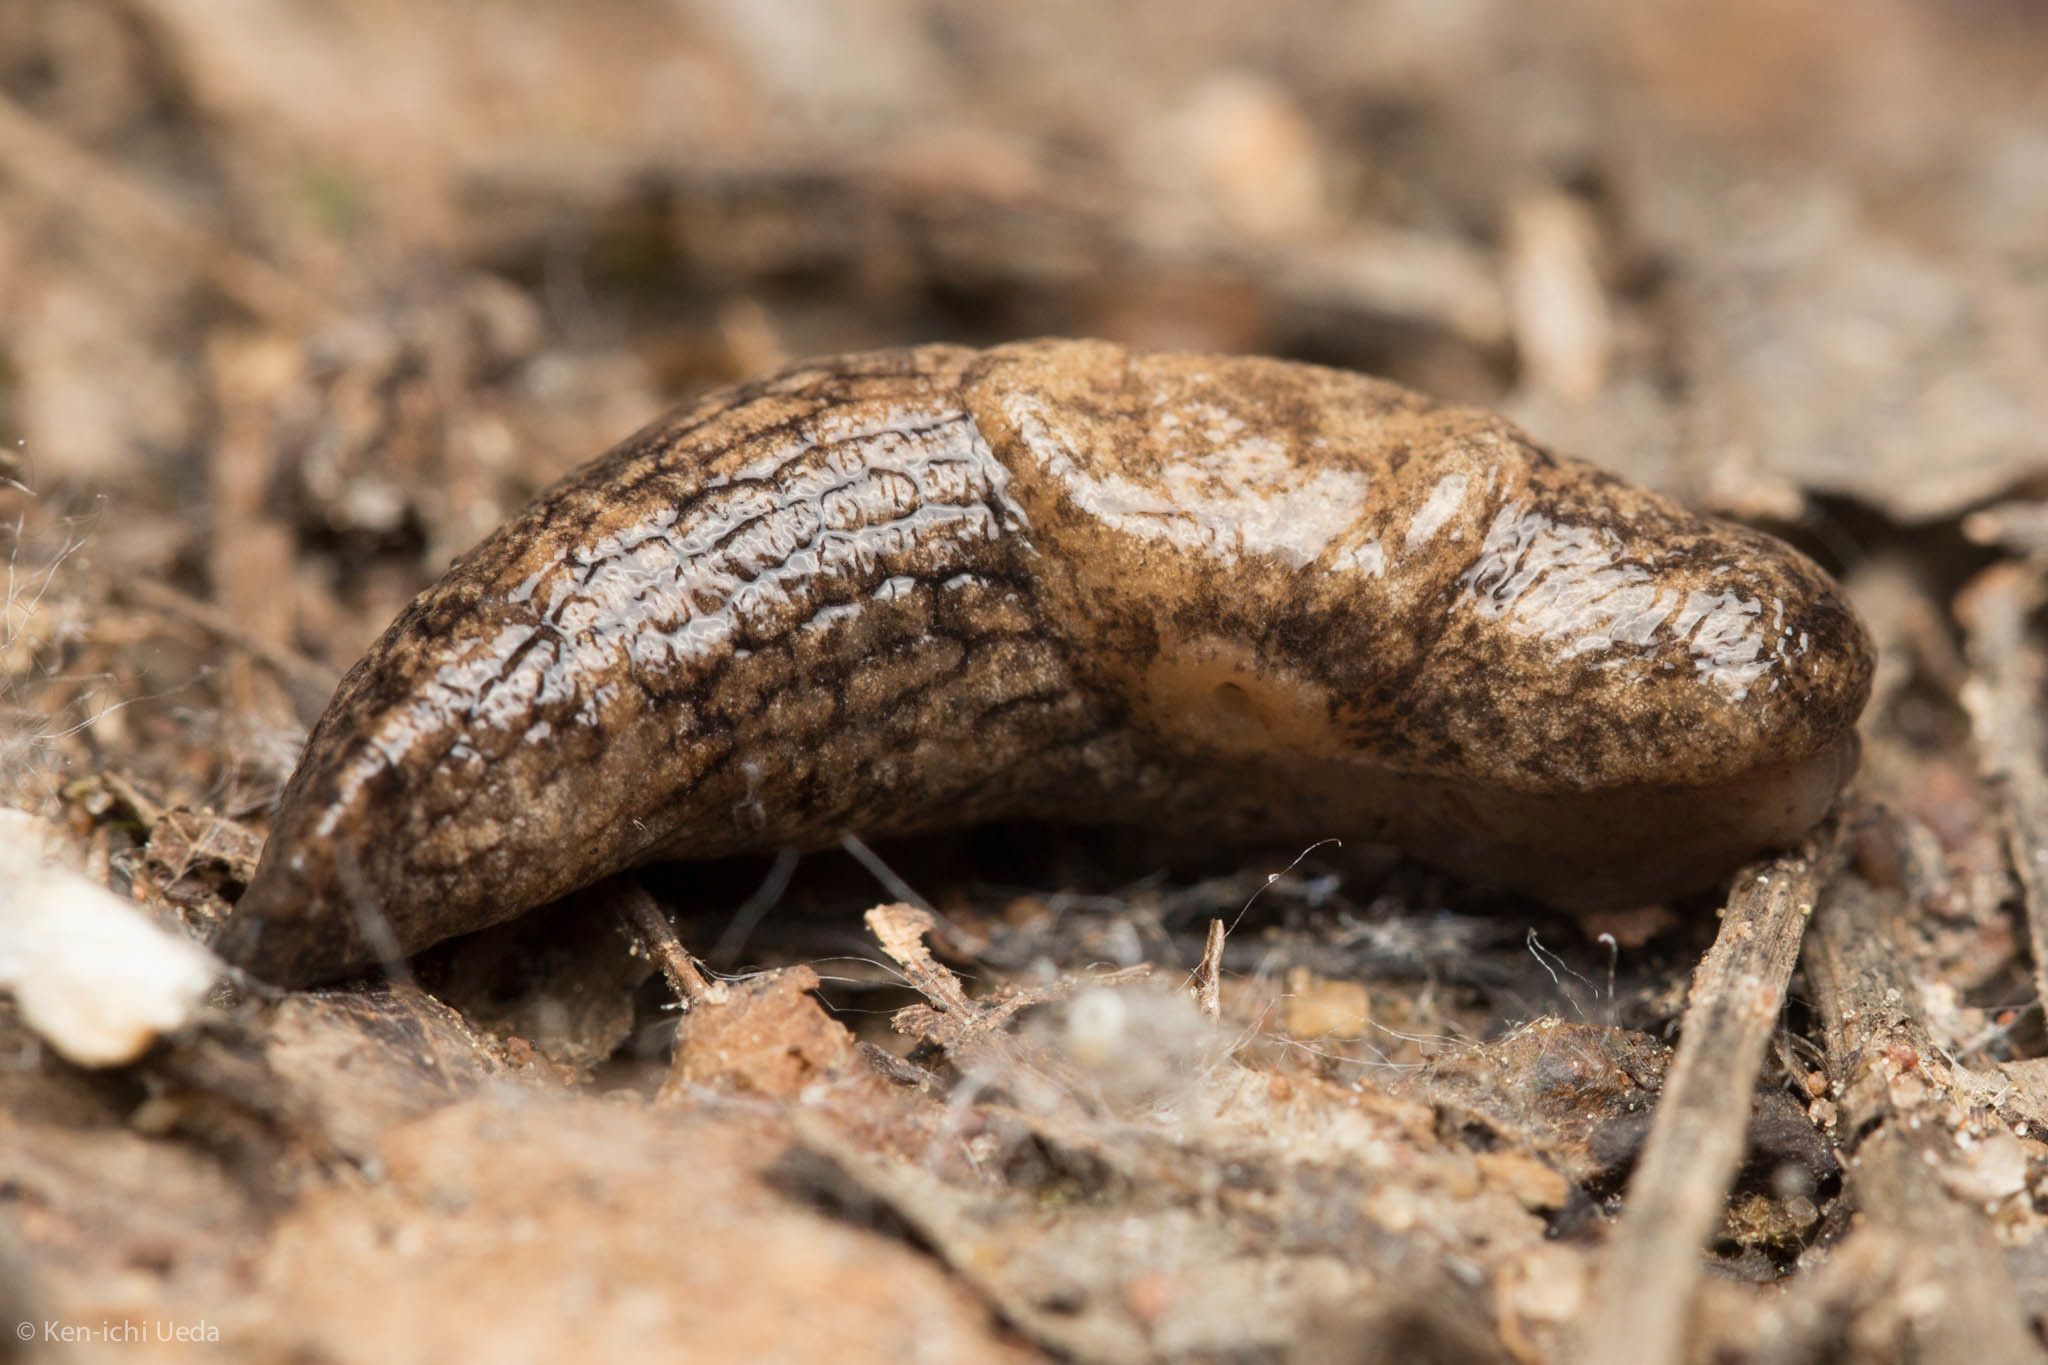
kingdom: Animalia
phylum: Mollusca
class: Gastropoda
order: Stylommatophora
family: Agriolimacidae
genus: Deroceras
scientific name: Deroceras reticulatum
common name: Gray field slug
